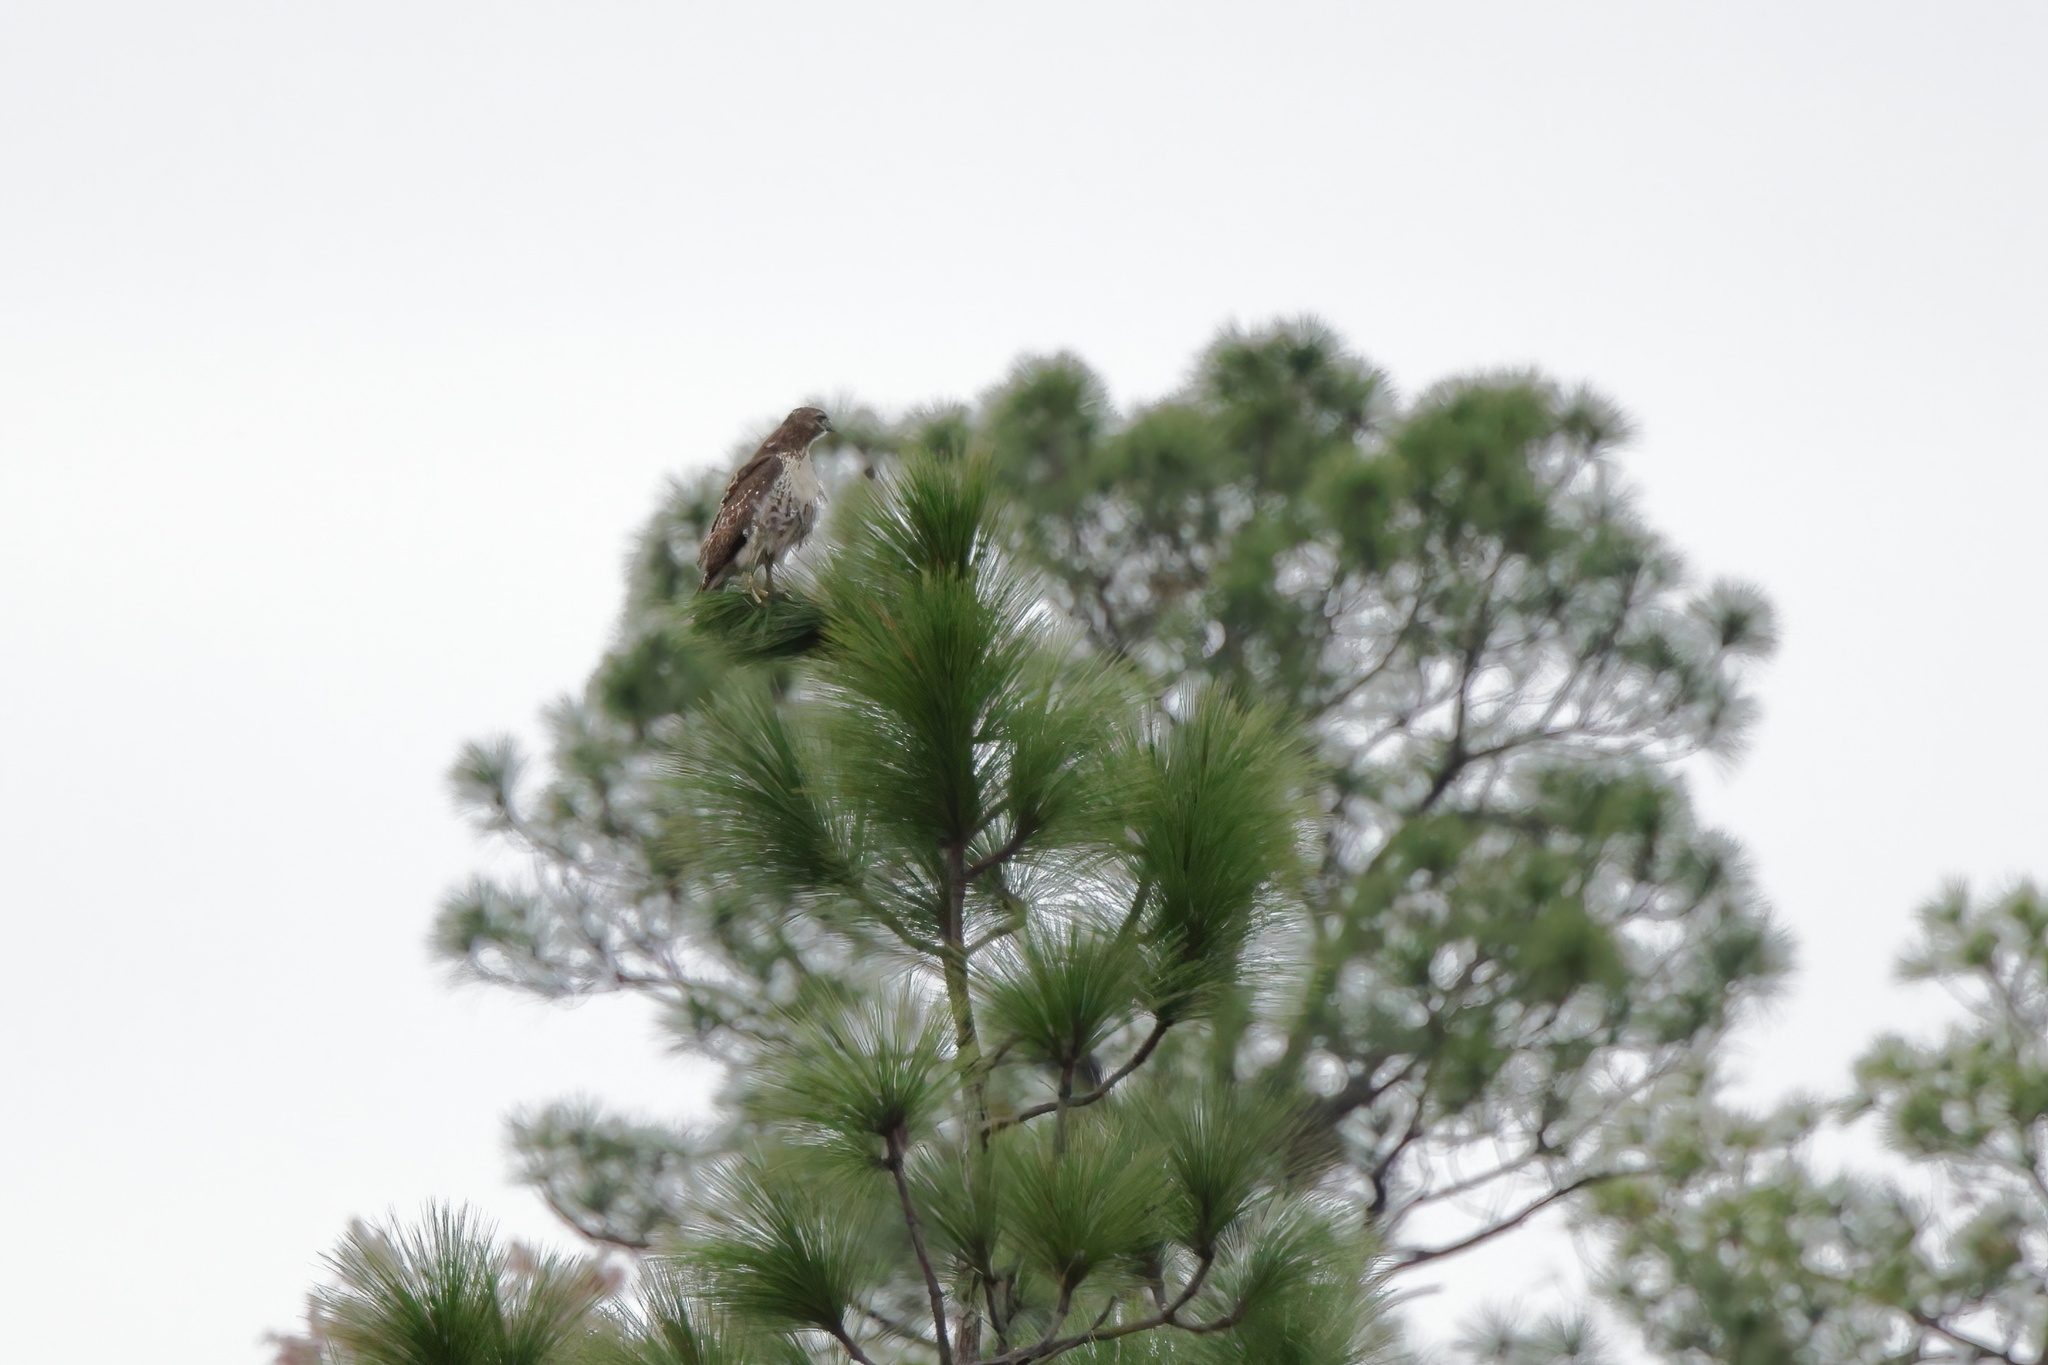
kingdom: Animalia
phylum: Chordata
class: Aves
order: Accipitriformes
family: Accipitridae
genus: Buteo
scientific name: Buteo jamaicensis
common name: Red-tailed hawk
